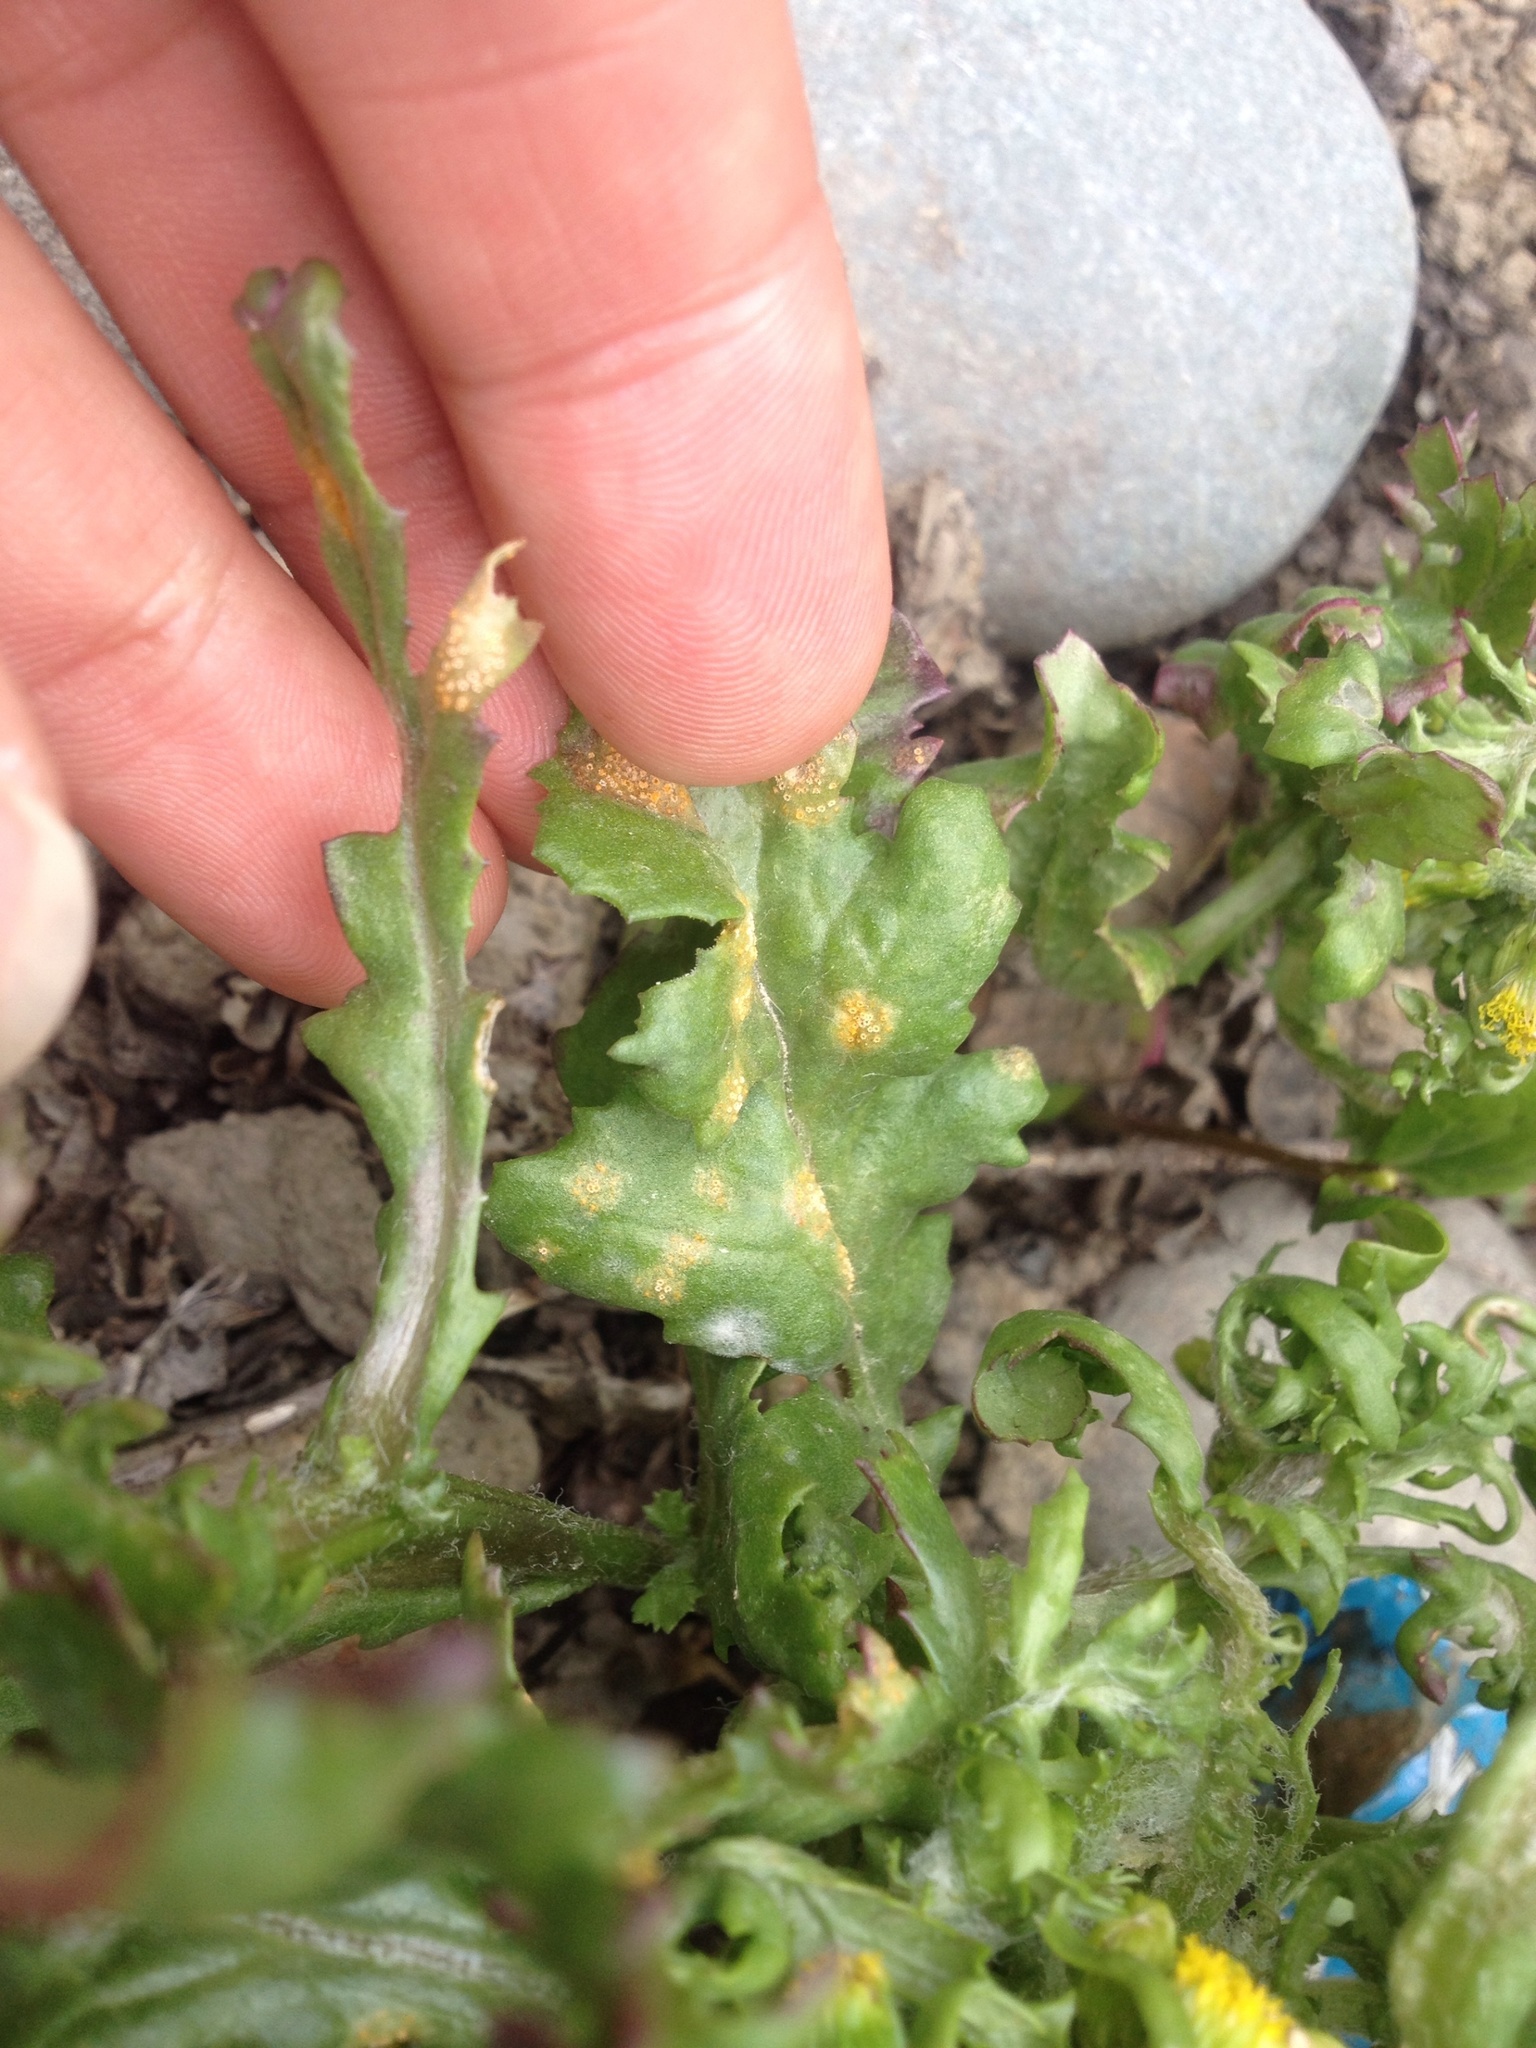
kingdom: Fungi
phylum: Basidiomycota
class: Pucciniomycetes
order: Pucciniales
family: Pucciniaceae
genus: Puccinia
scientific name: Puccinia lagenophorae
